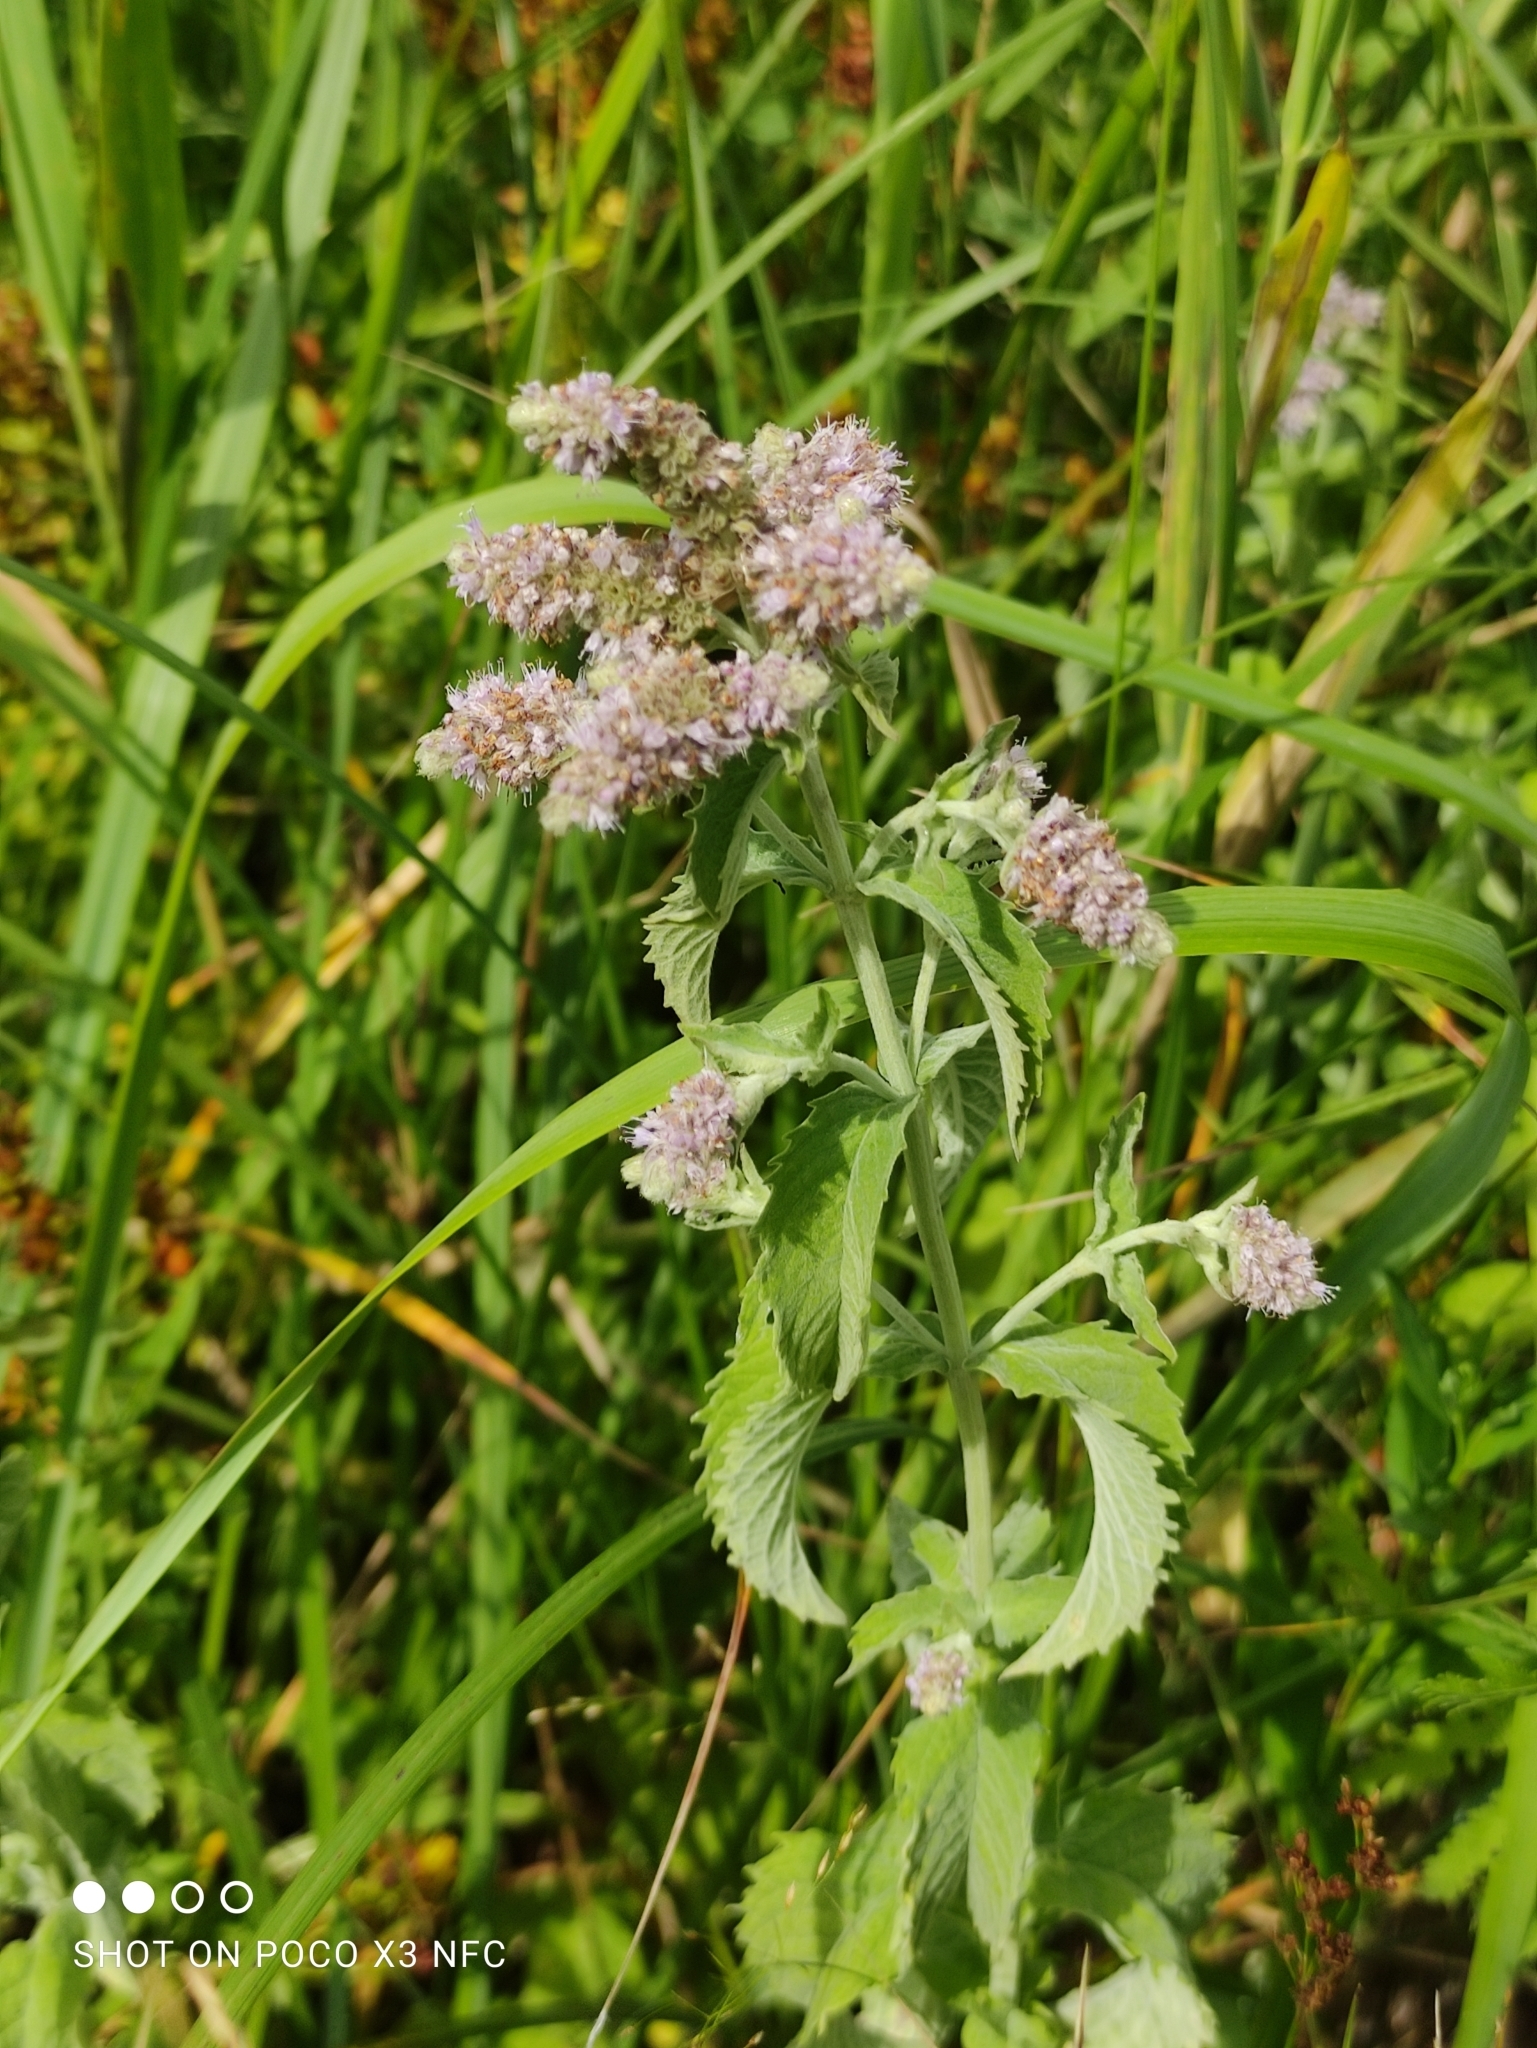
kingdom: Plantae
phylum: Tracheophyta
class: Magnoliopsida
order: Lamiales
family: Lamiaceae
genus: Mentha
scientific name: Mentha longifolia
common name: Horse mint
